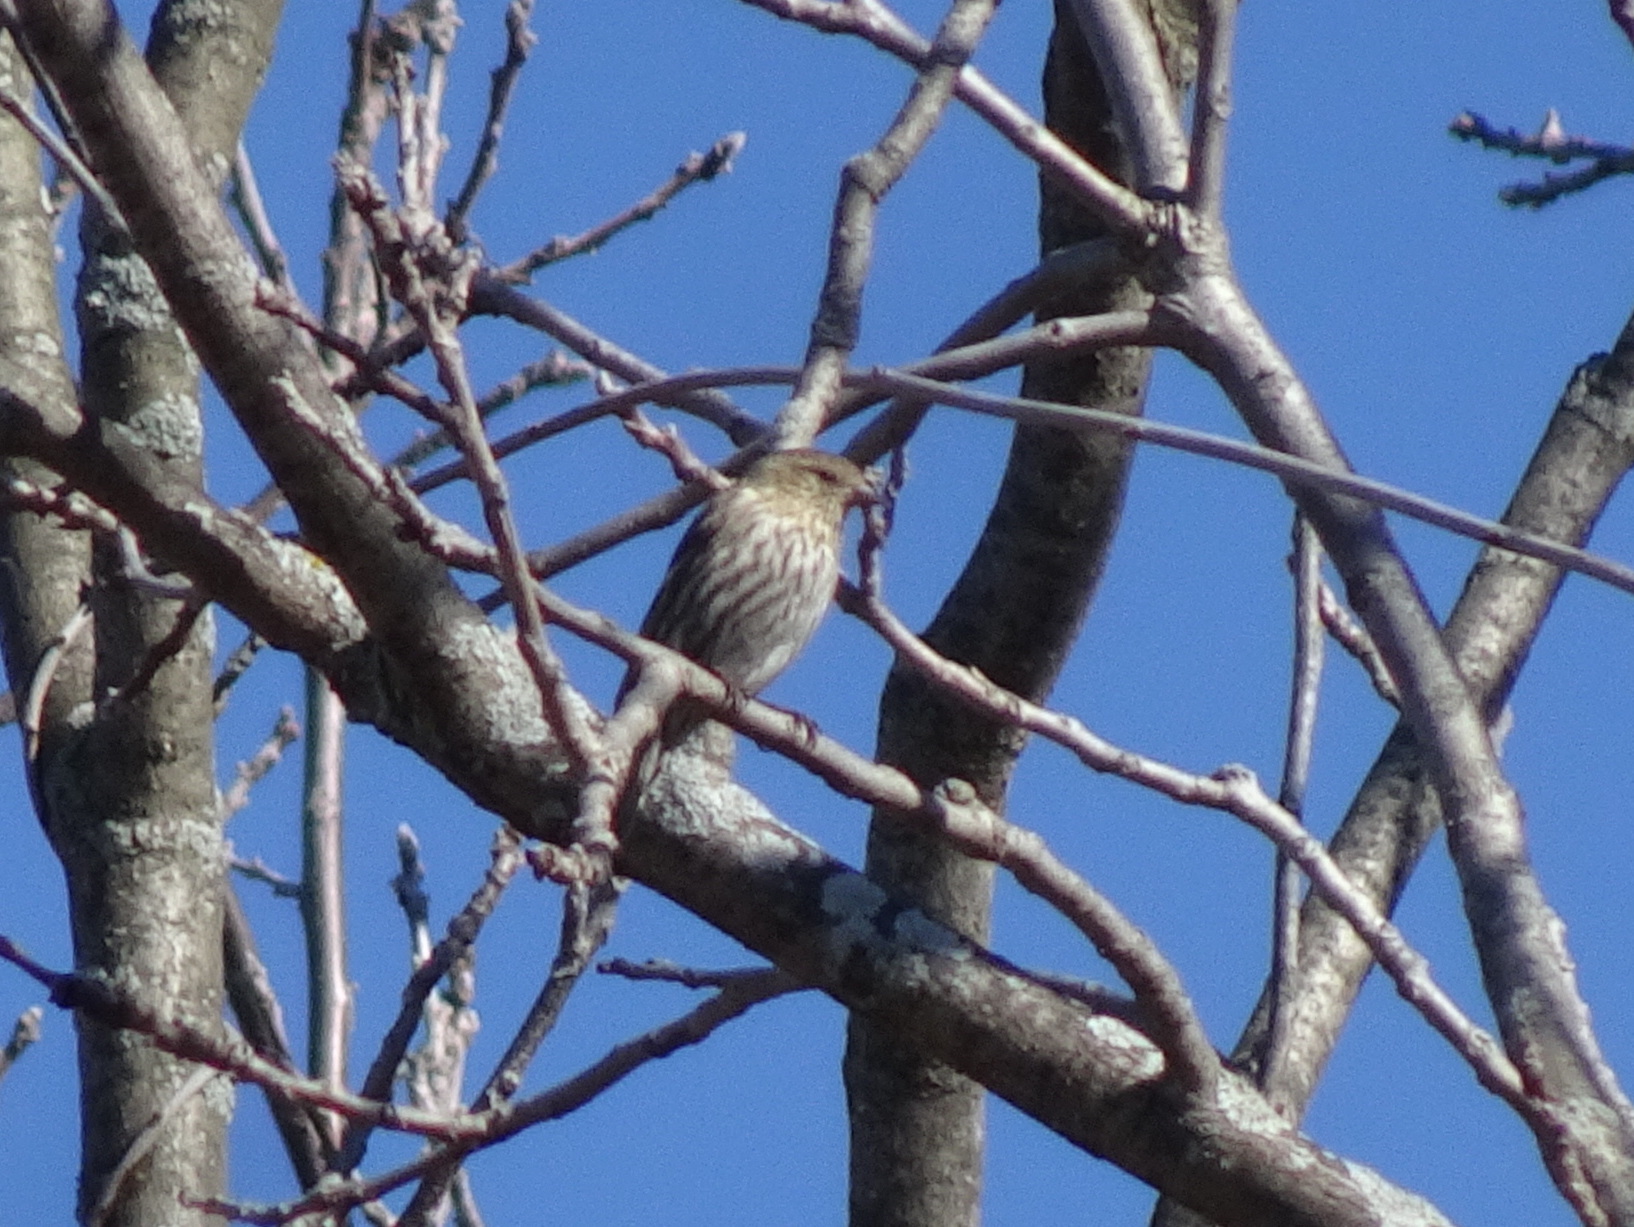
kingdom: Animalia
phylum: Chordata
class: Aves
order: Passeriformes
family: Fringillidae
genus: Spinus
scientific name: Spinus pinus
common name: Pine siskin
